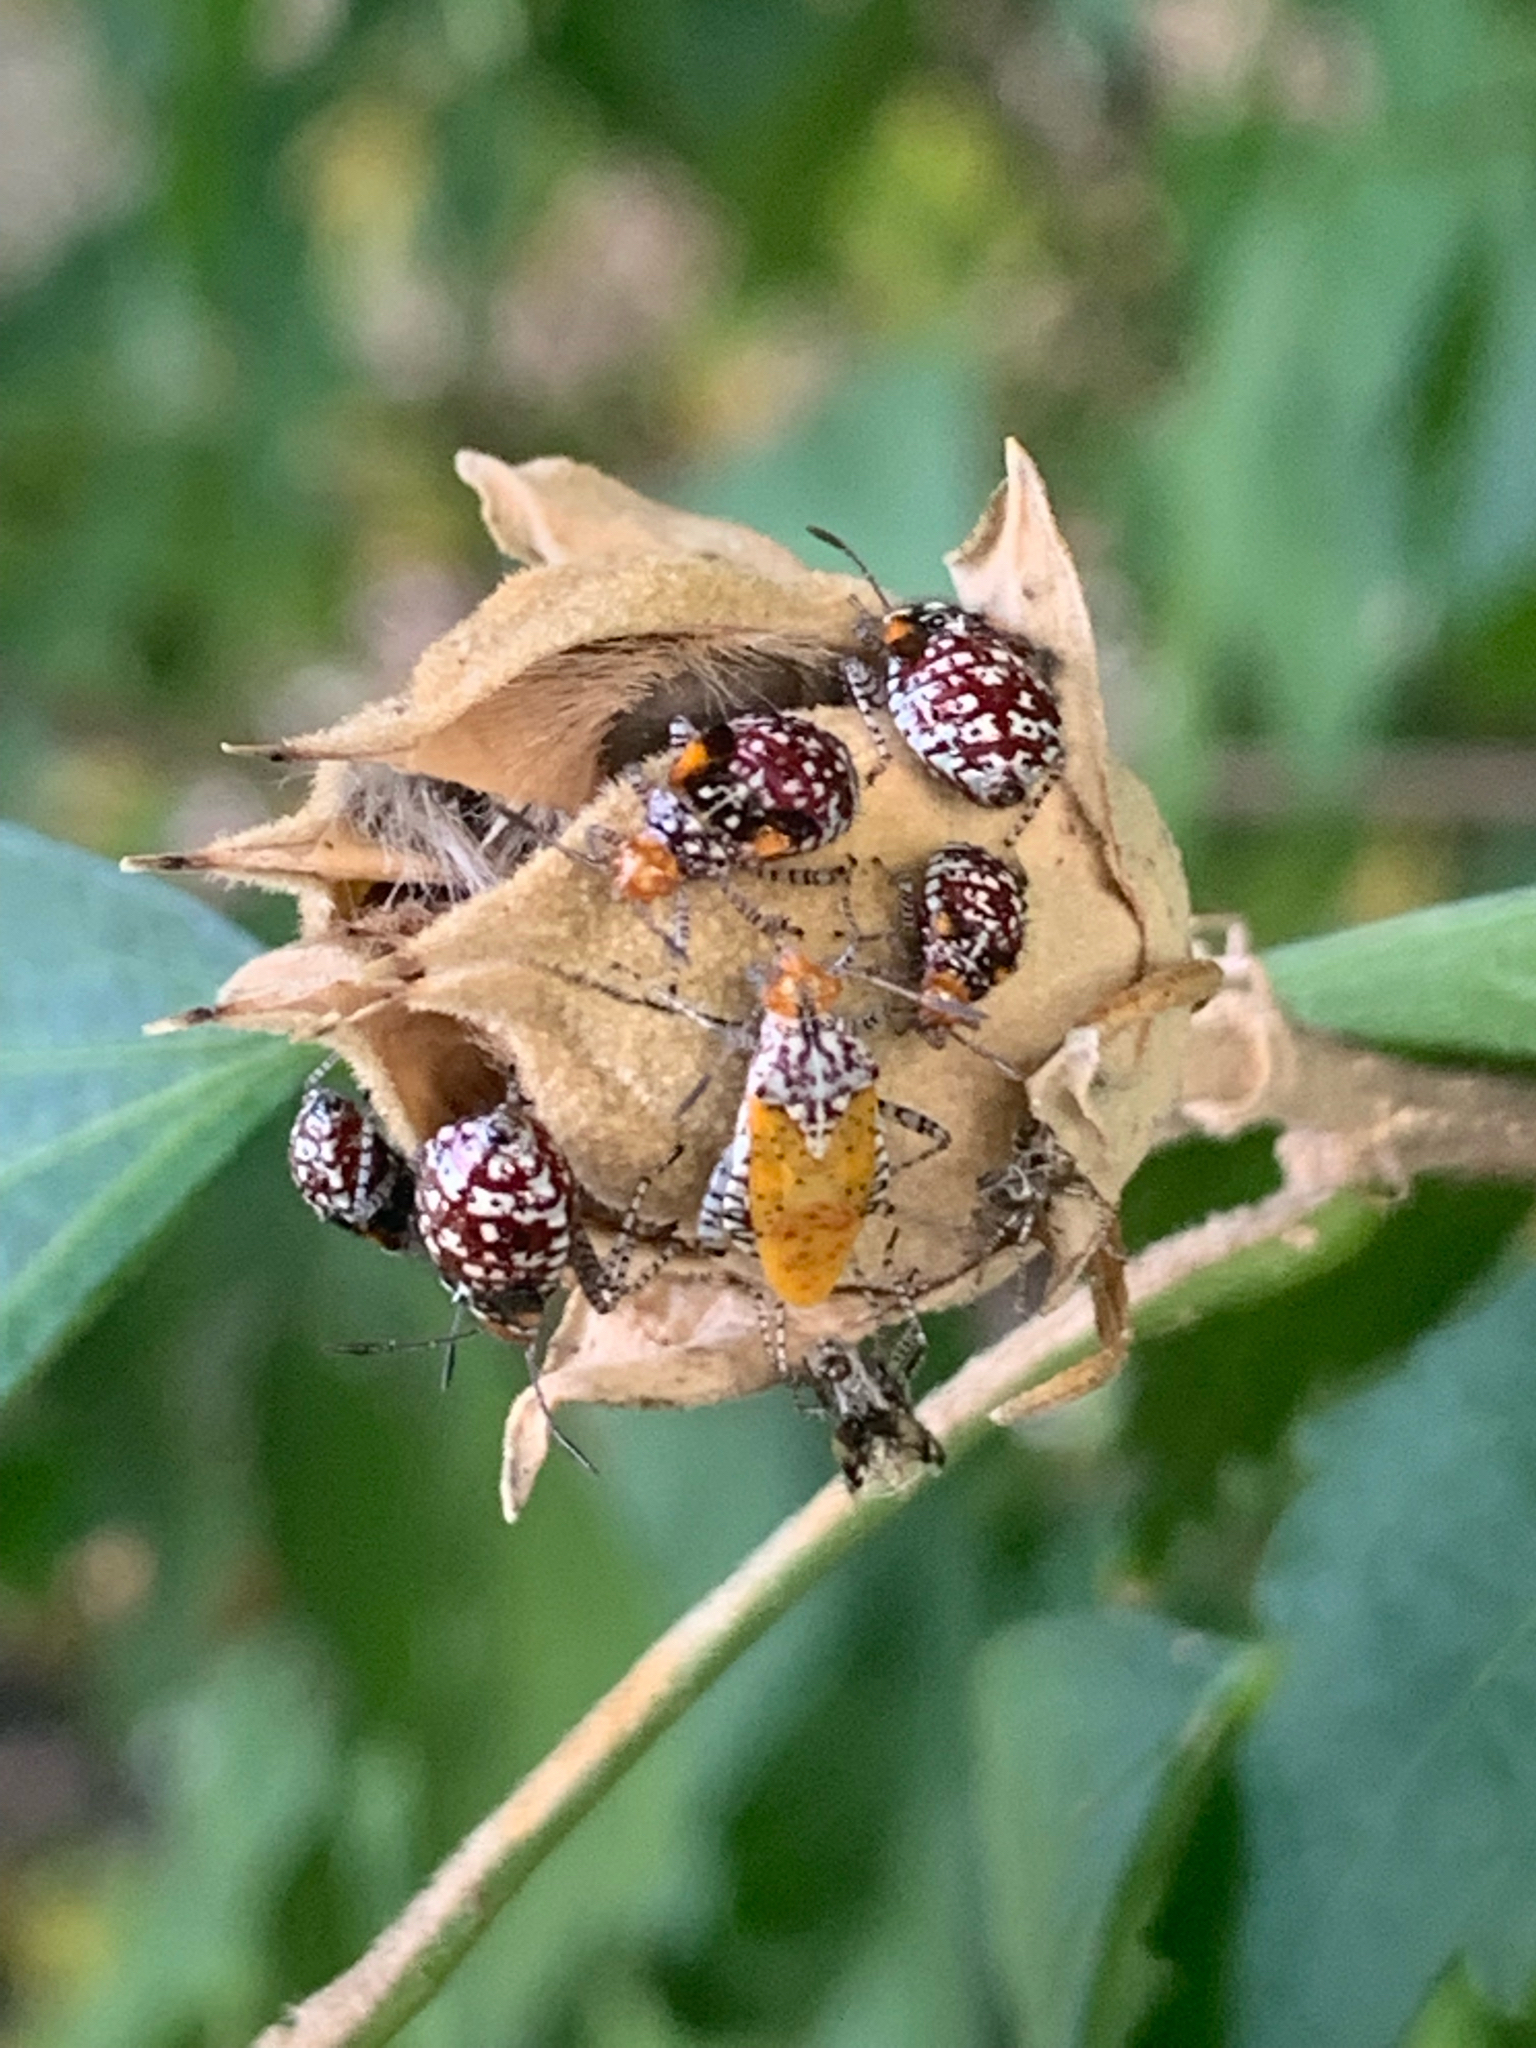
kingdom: Animalia
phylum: Arthropoda
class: Insecta
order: Hemiptera
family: Rhopalidae
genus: Niesthrea
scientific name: Niesthrea louisianica
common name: Scentless plant bug
